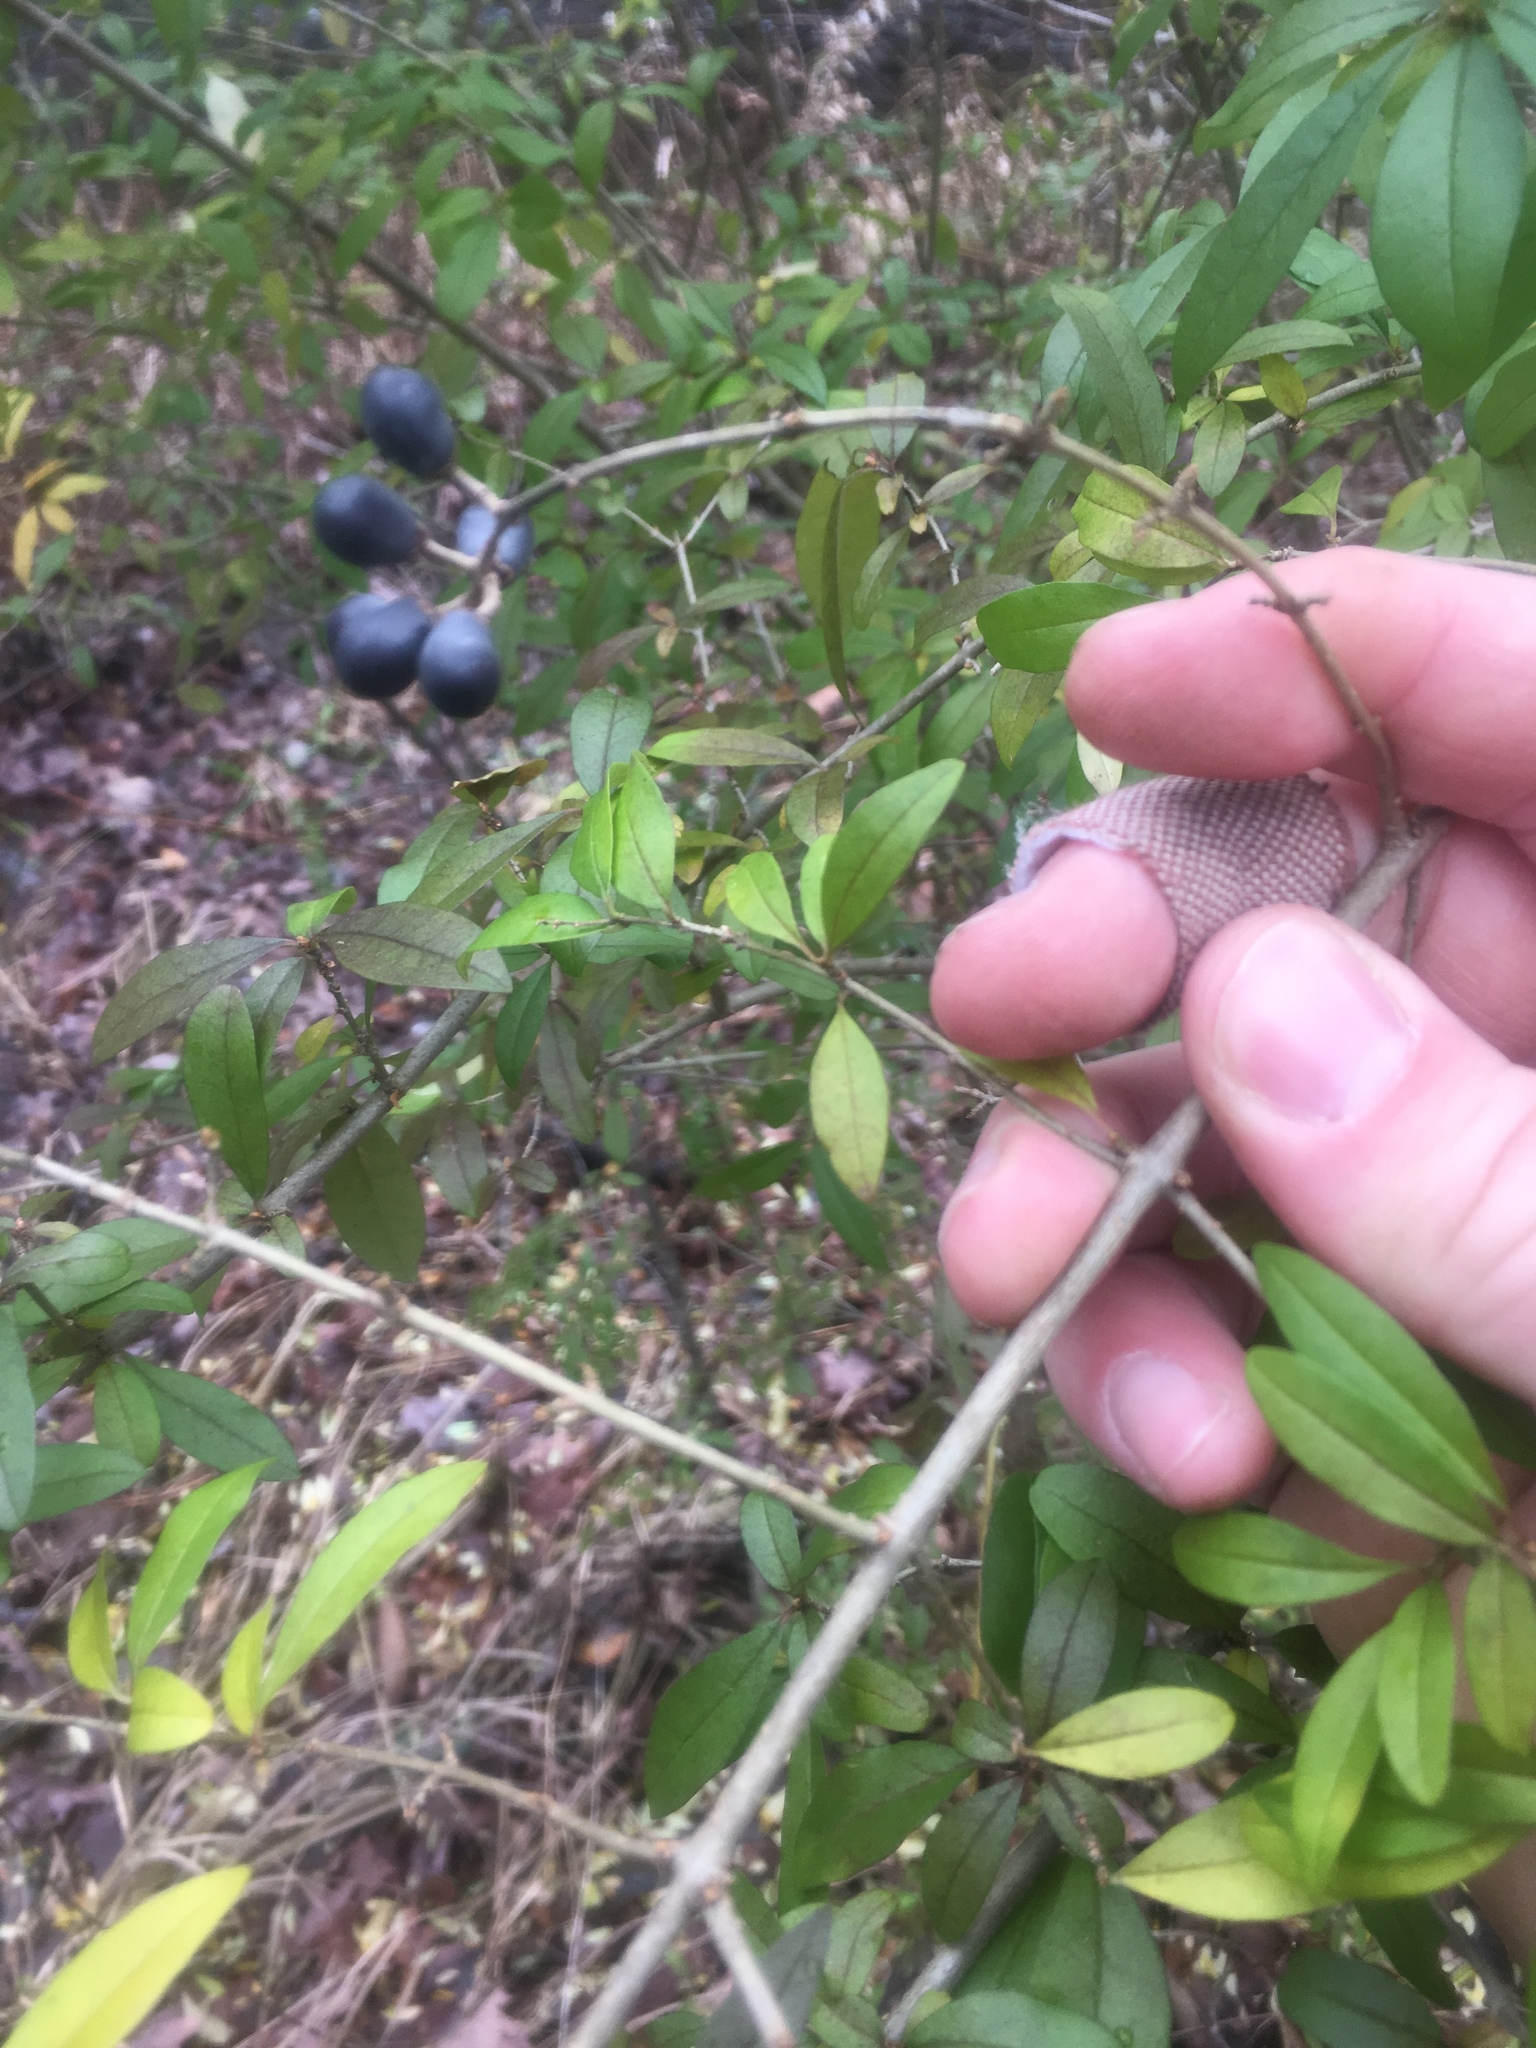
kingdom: Plantae
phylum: Tracheophyta
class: Magnoliopsida
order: Lamiales
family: Oleaceae
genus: Ligustrum
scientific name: Ligustrum obtusifolium
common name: Border privet
